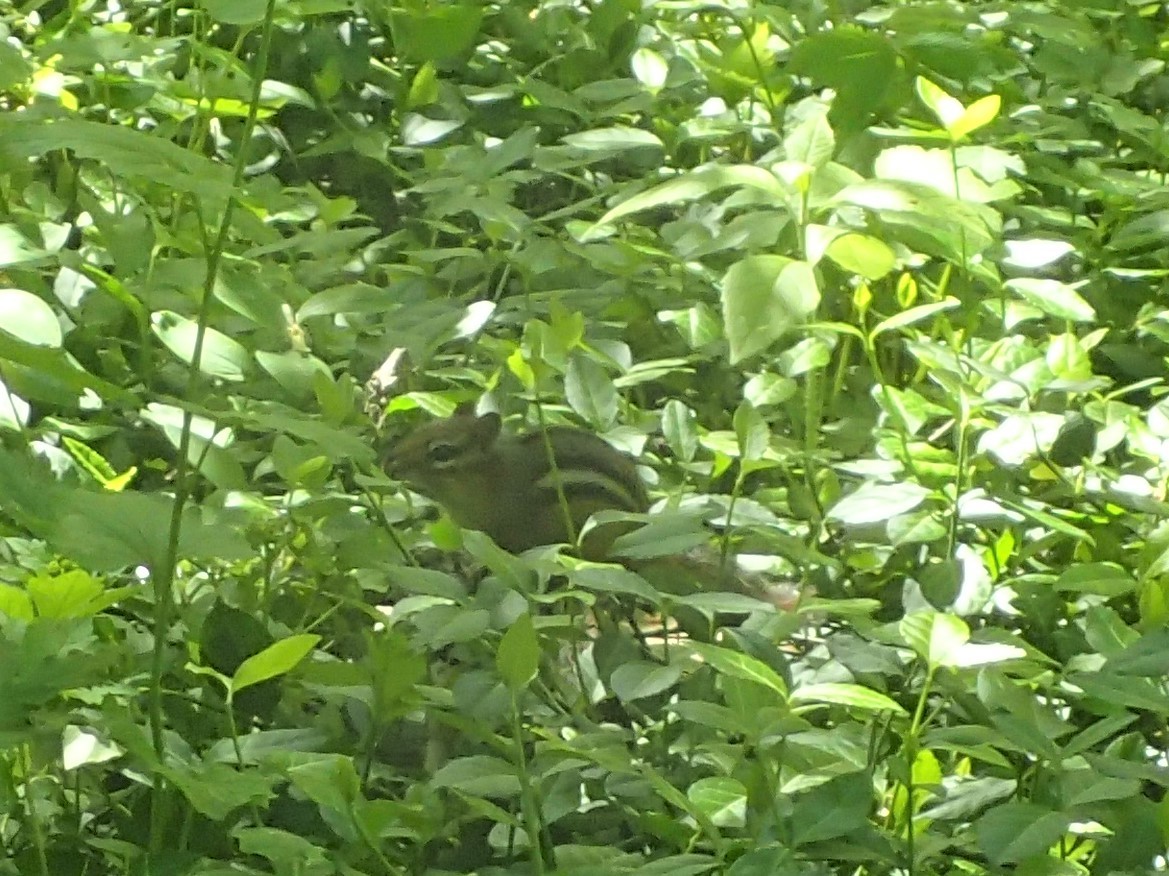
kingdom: Animalia
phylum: Chordata
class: Mammalia
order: Rodentia
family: Sciuridae
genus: Tamias
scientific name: Tamias striatus
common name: Eastern chipmunk
